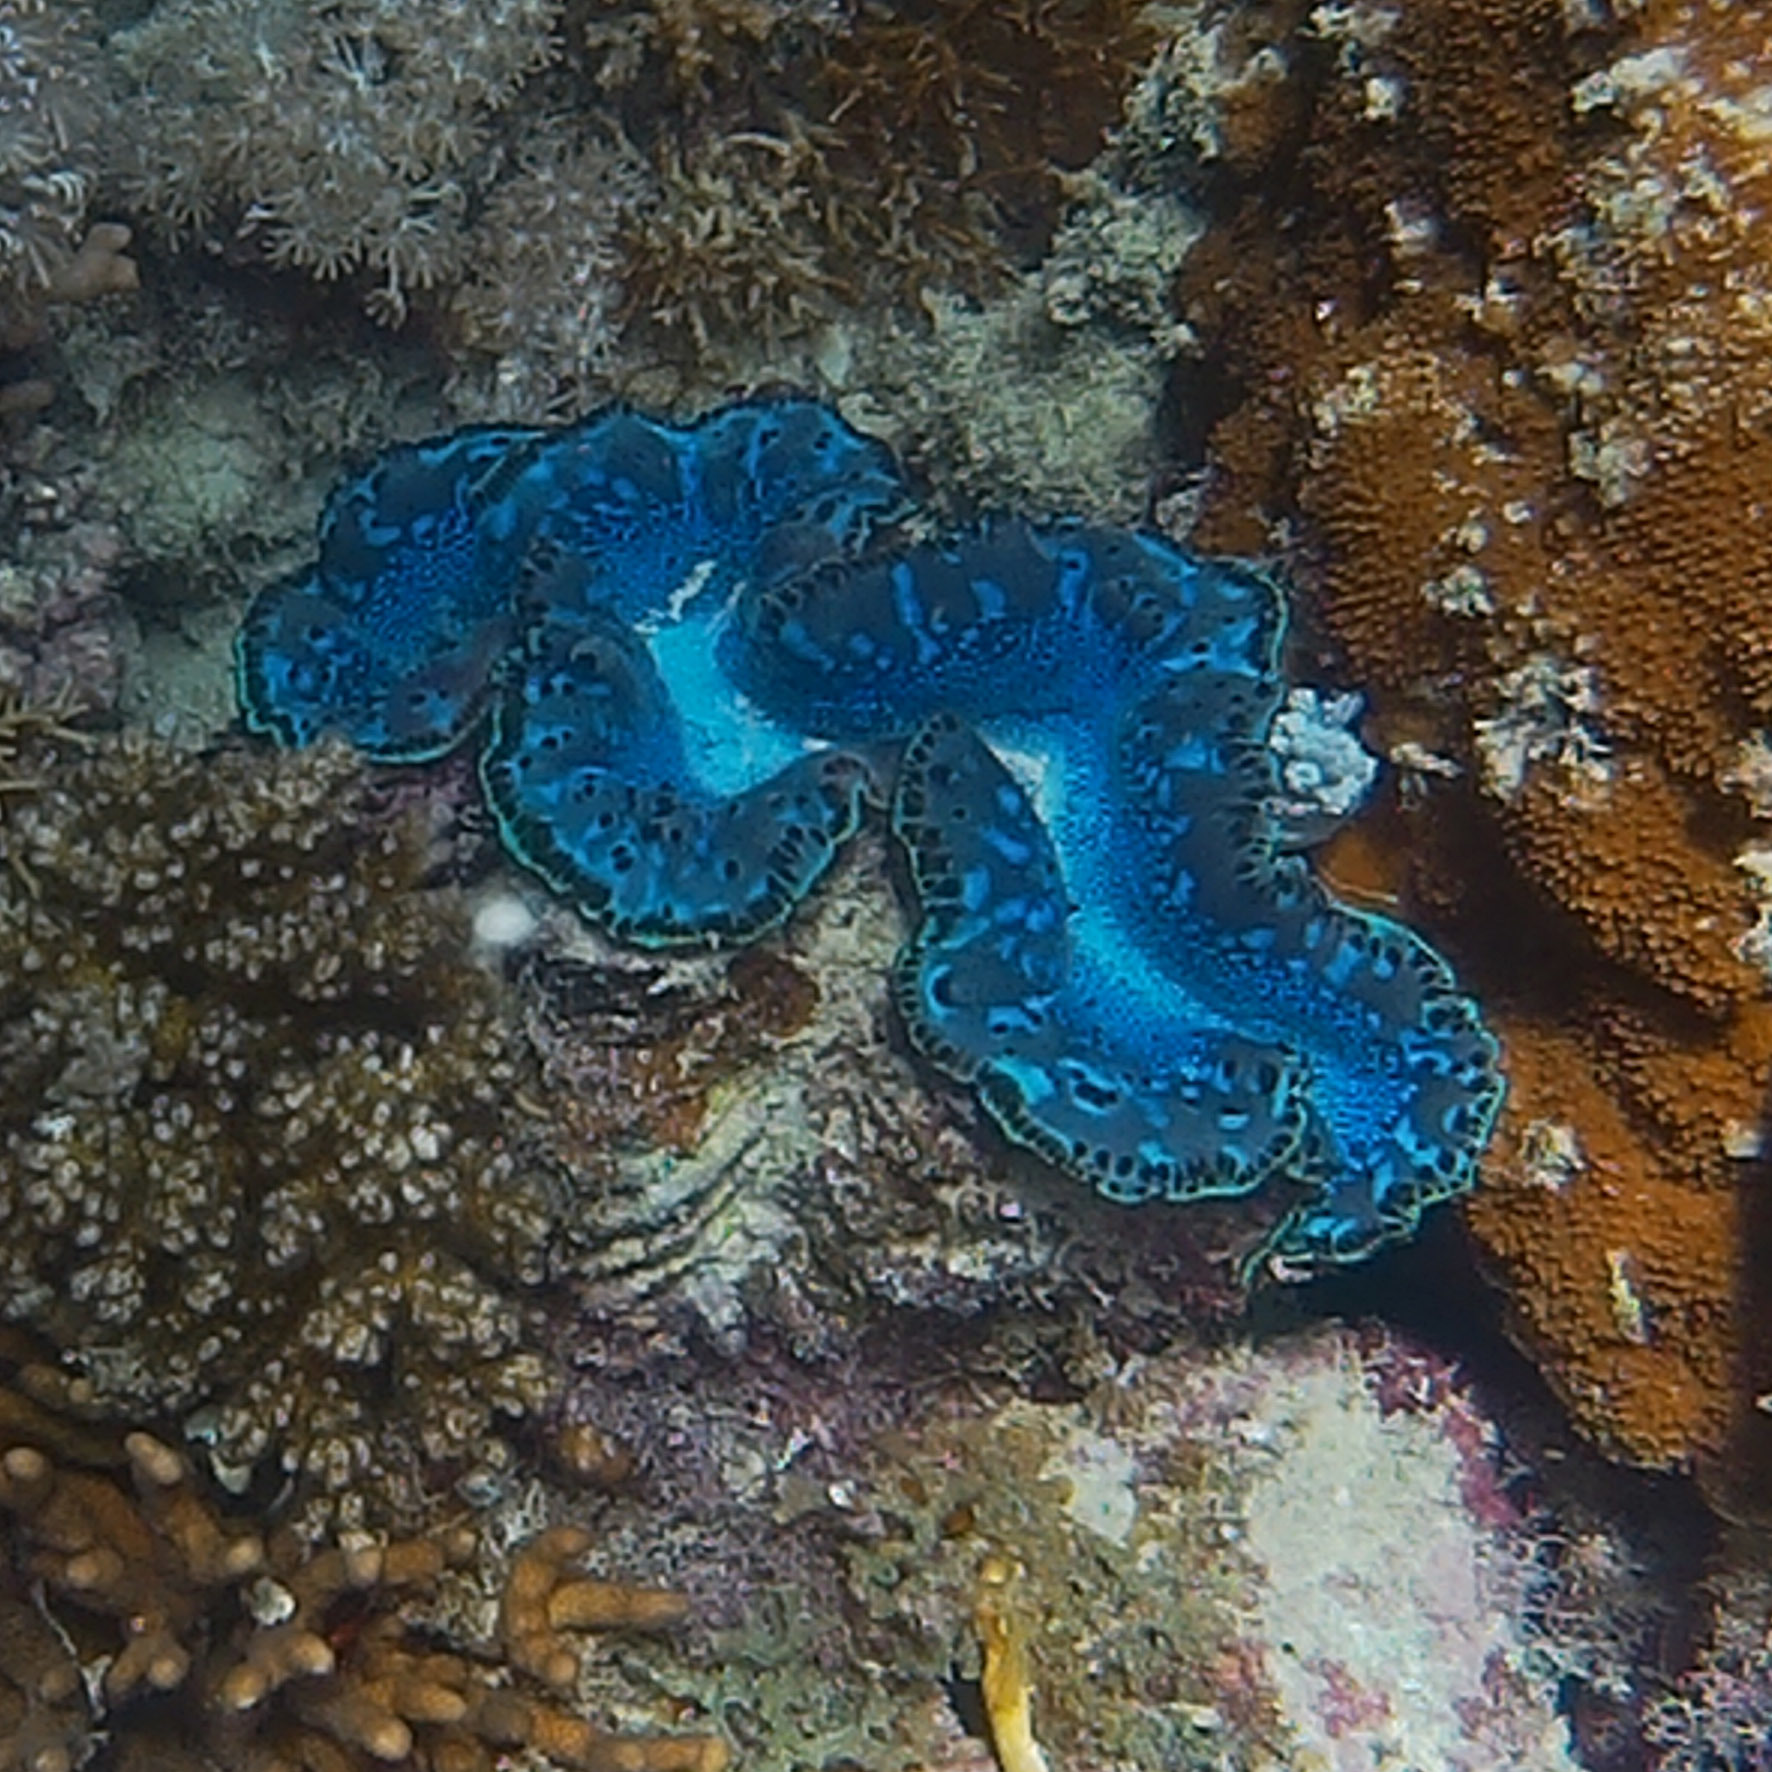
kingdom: Animalia
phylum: Mollusca
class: Bivalvia
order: Cardiida
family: Cardiidae
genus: Tridacna
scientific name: Tridacna maxima
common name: Small giant clam
